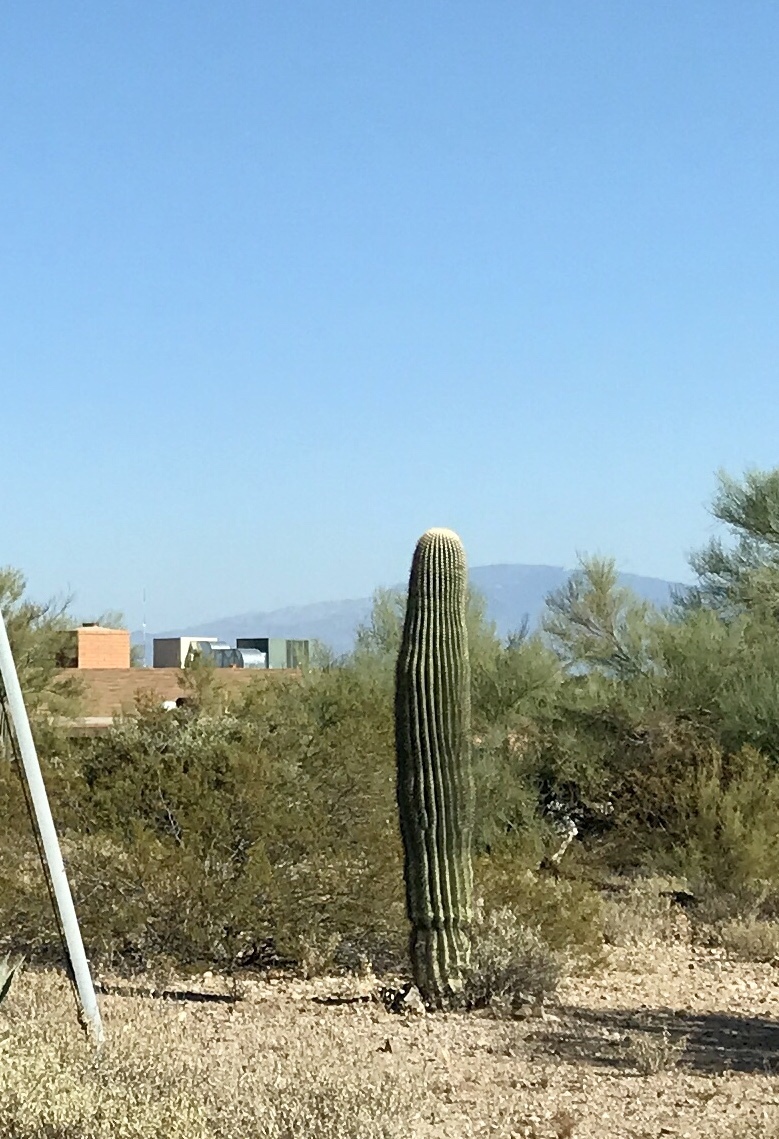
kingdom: Plantae
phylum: Tracheophyta
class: Magnoliopsida
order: Caryophyllales
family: Cactaceae
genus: Carnegiea
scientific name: Carnegiea gigantea
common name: Saguaro
